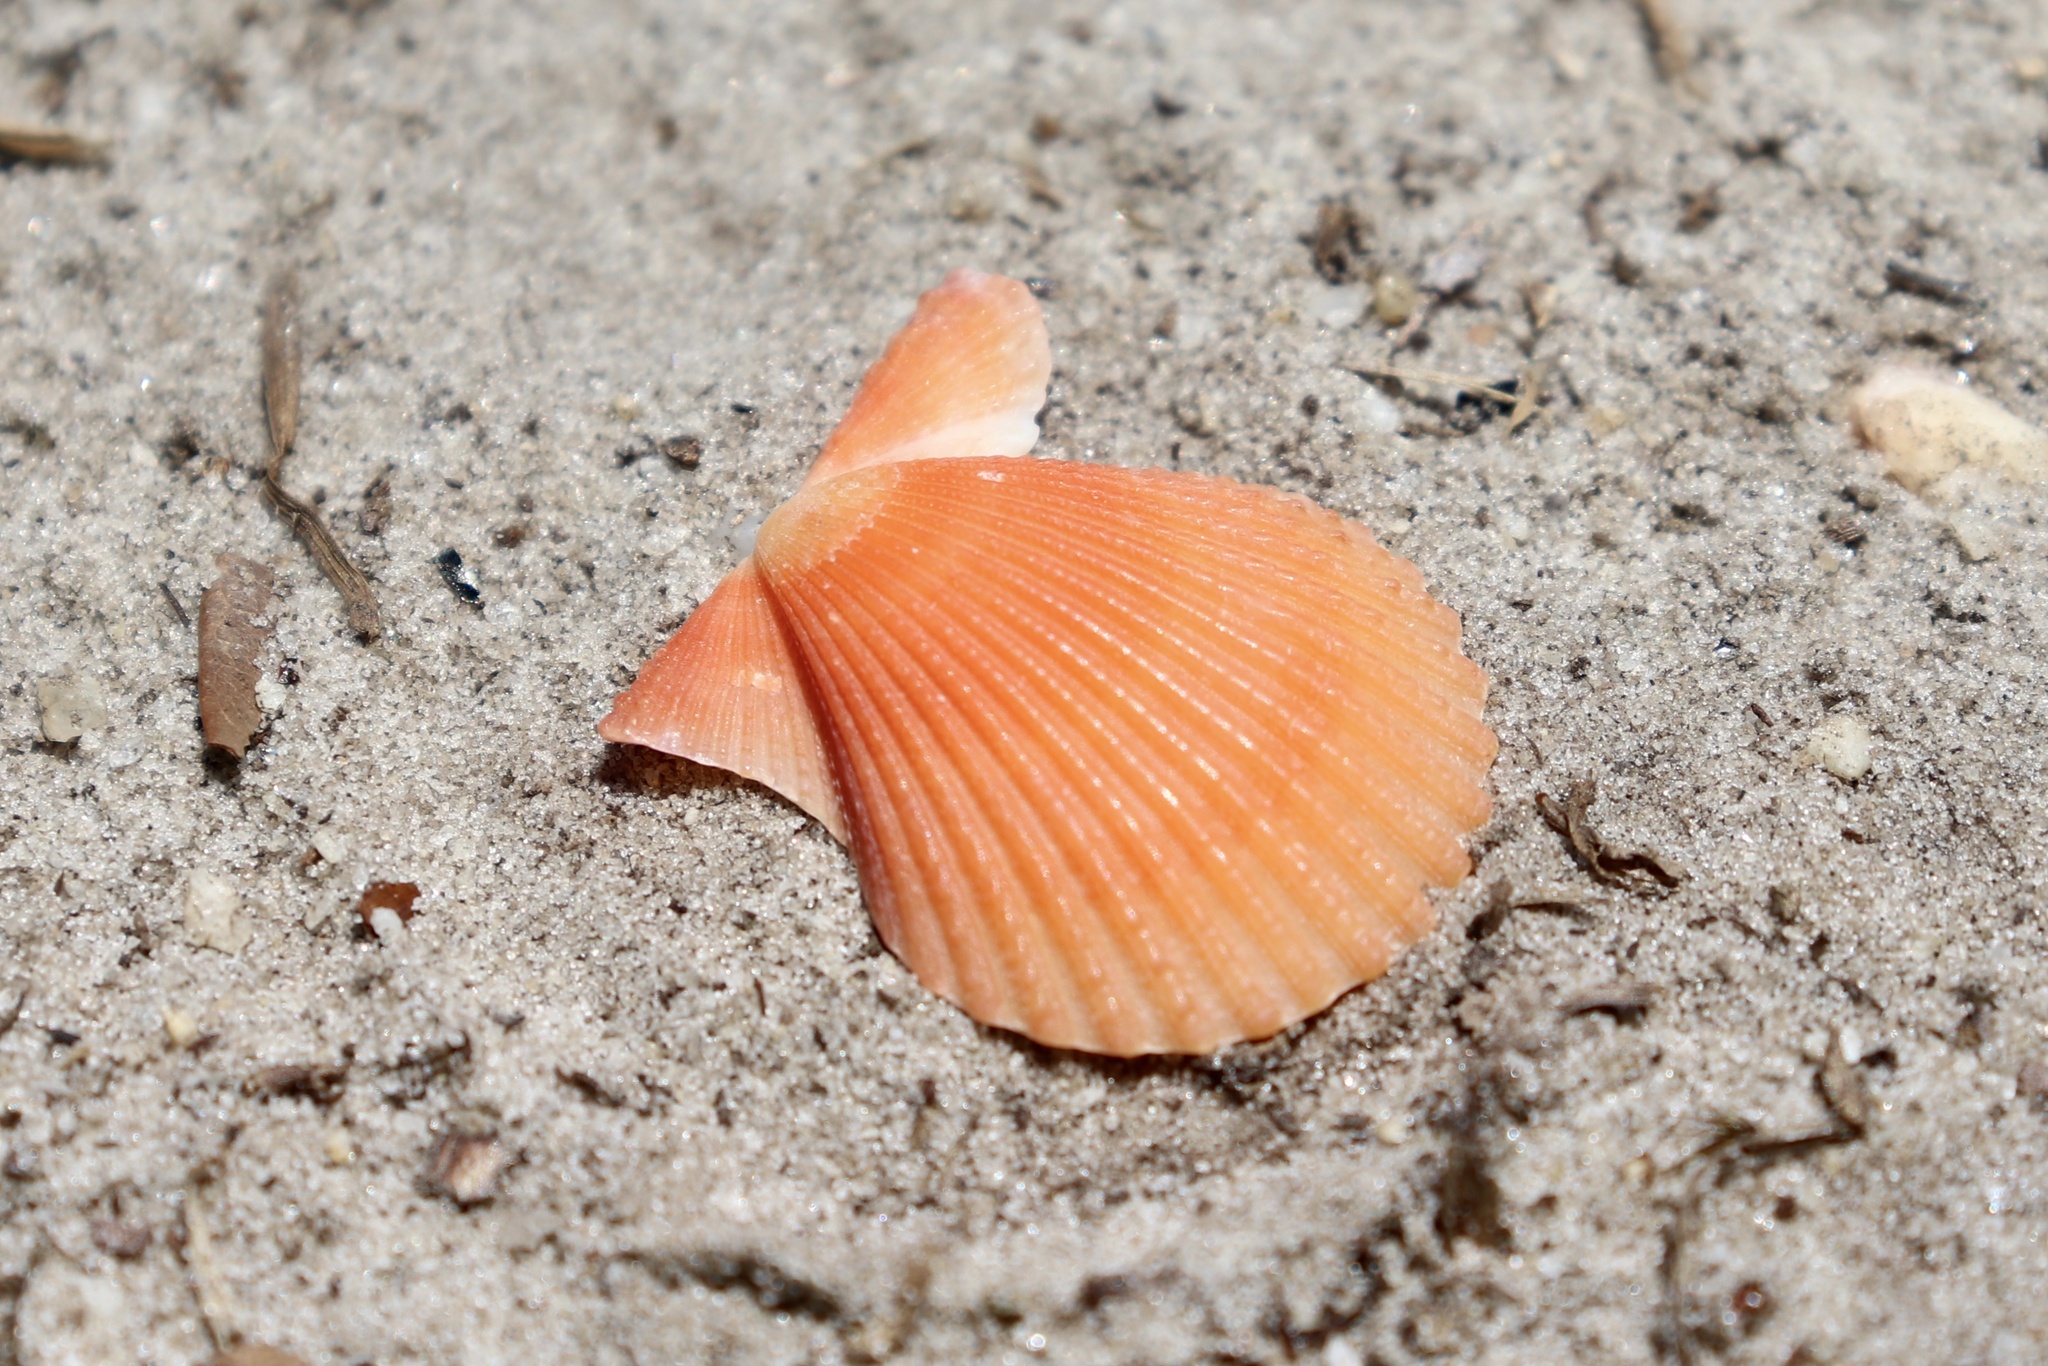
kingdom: Animalia
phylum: Mollusca
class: Bivalvia
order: Pectinida
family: Pectinidae
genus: Lindapecten
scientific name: Lindapecten muscosus
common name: Rough scallop
